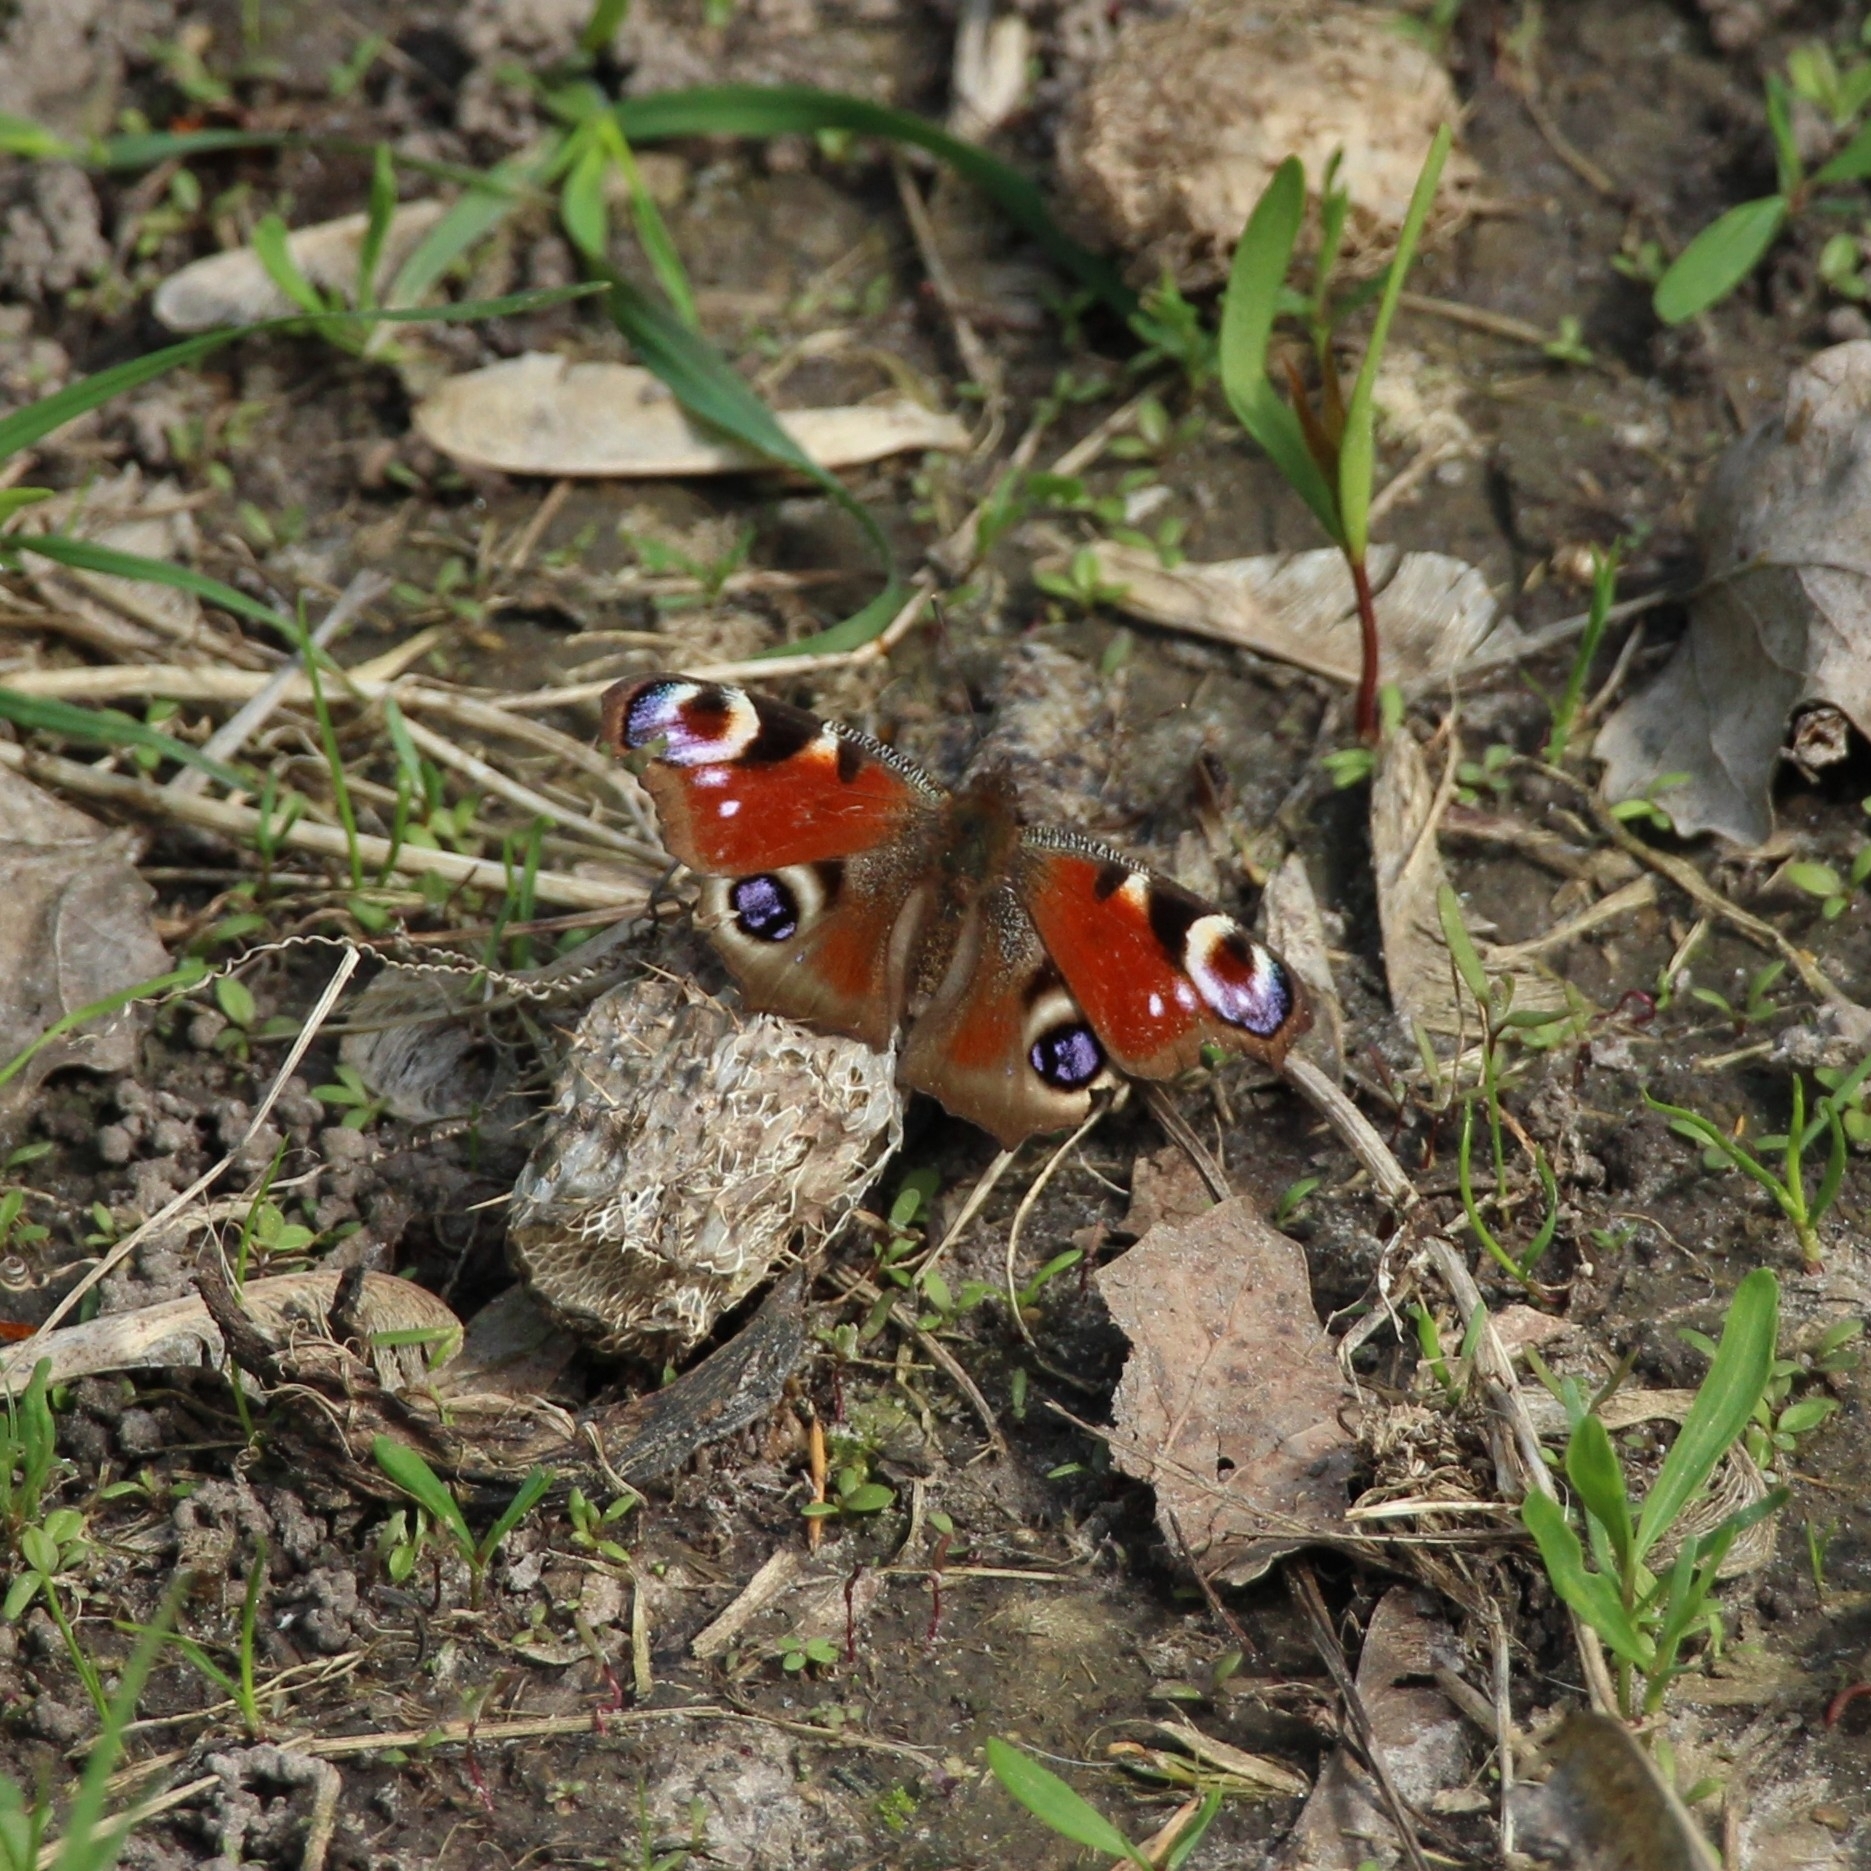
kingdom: Animalia
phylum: Arthropoda
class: Insecta
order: Lepidoptera
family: Nymphalidae
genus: Aglais
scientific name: Aglais io
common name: Peacock
